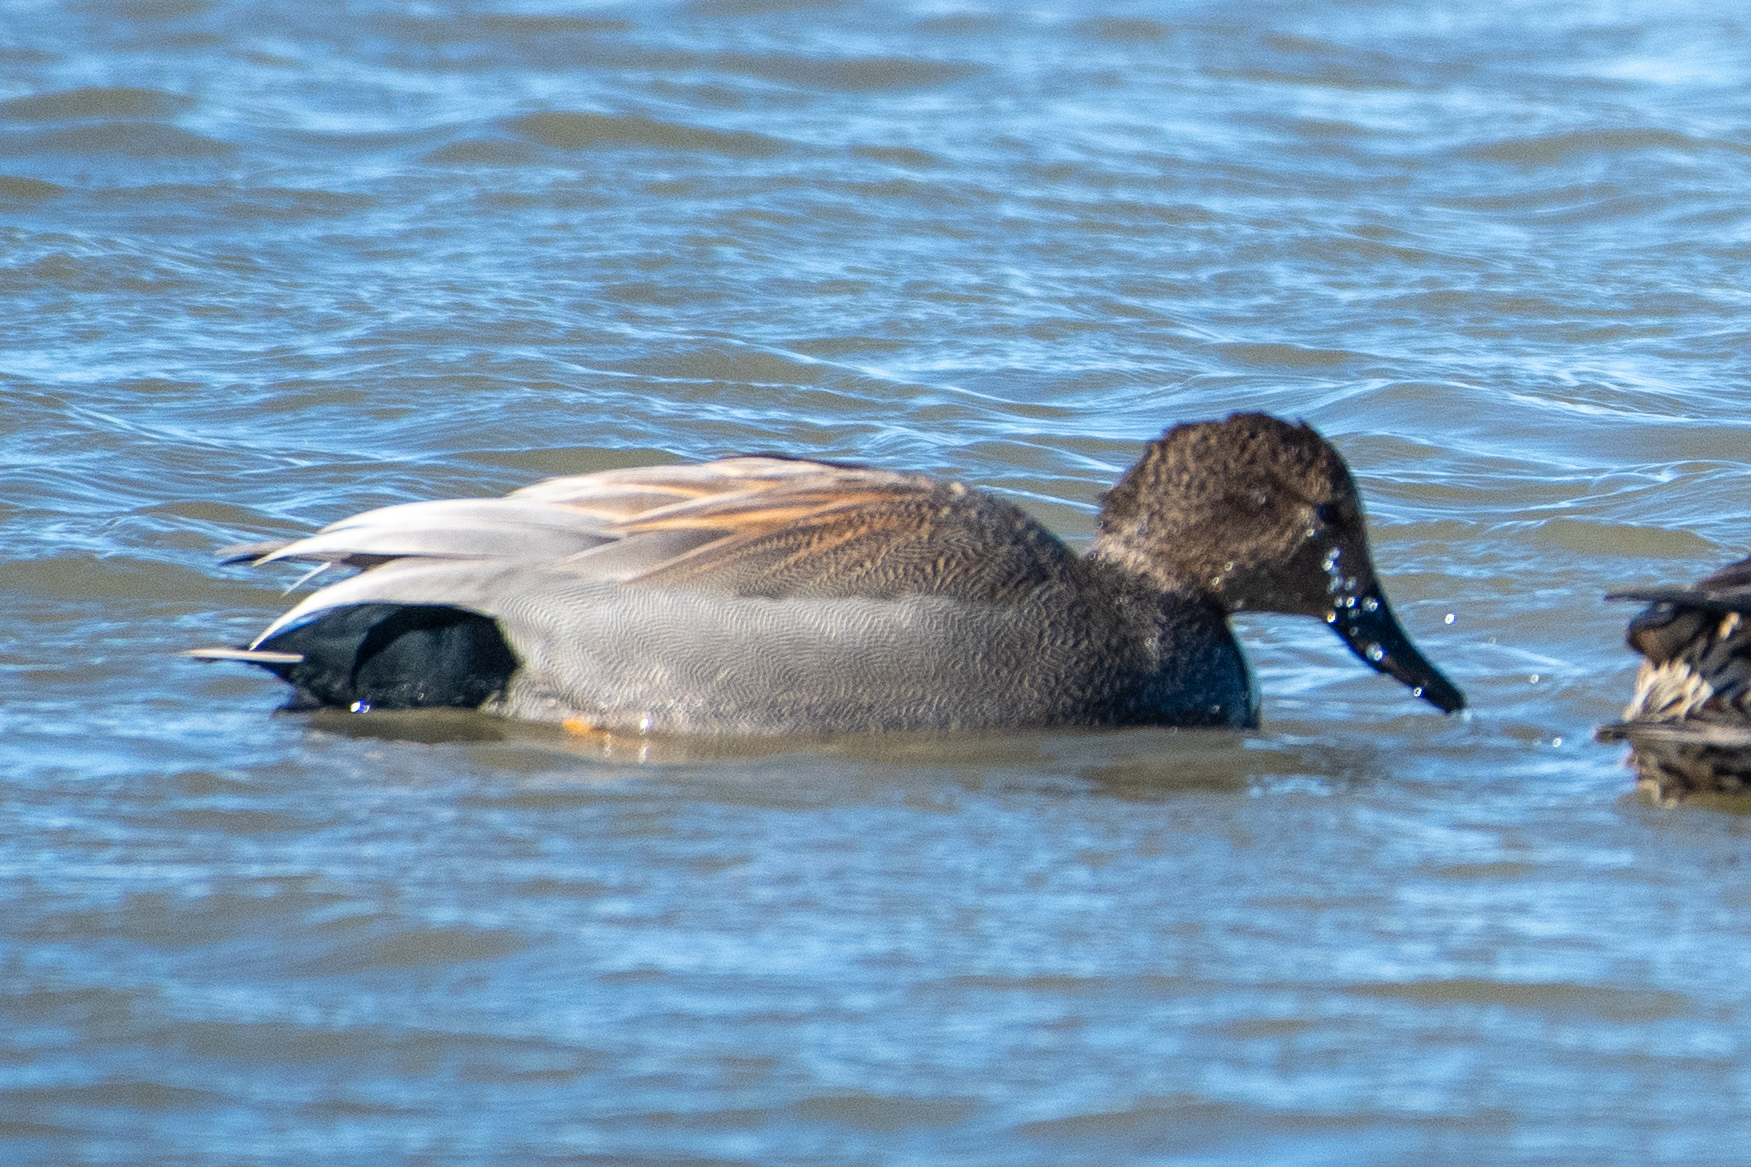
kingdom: Animalia
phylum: Chordata
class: Aves
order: Anseriformes
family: Anatidae
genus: Mareca
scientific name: Mareca strepera
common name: Gadwall
